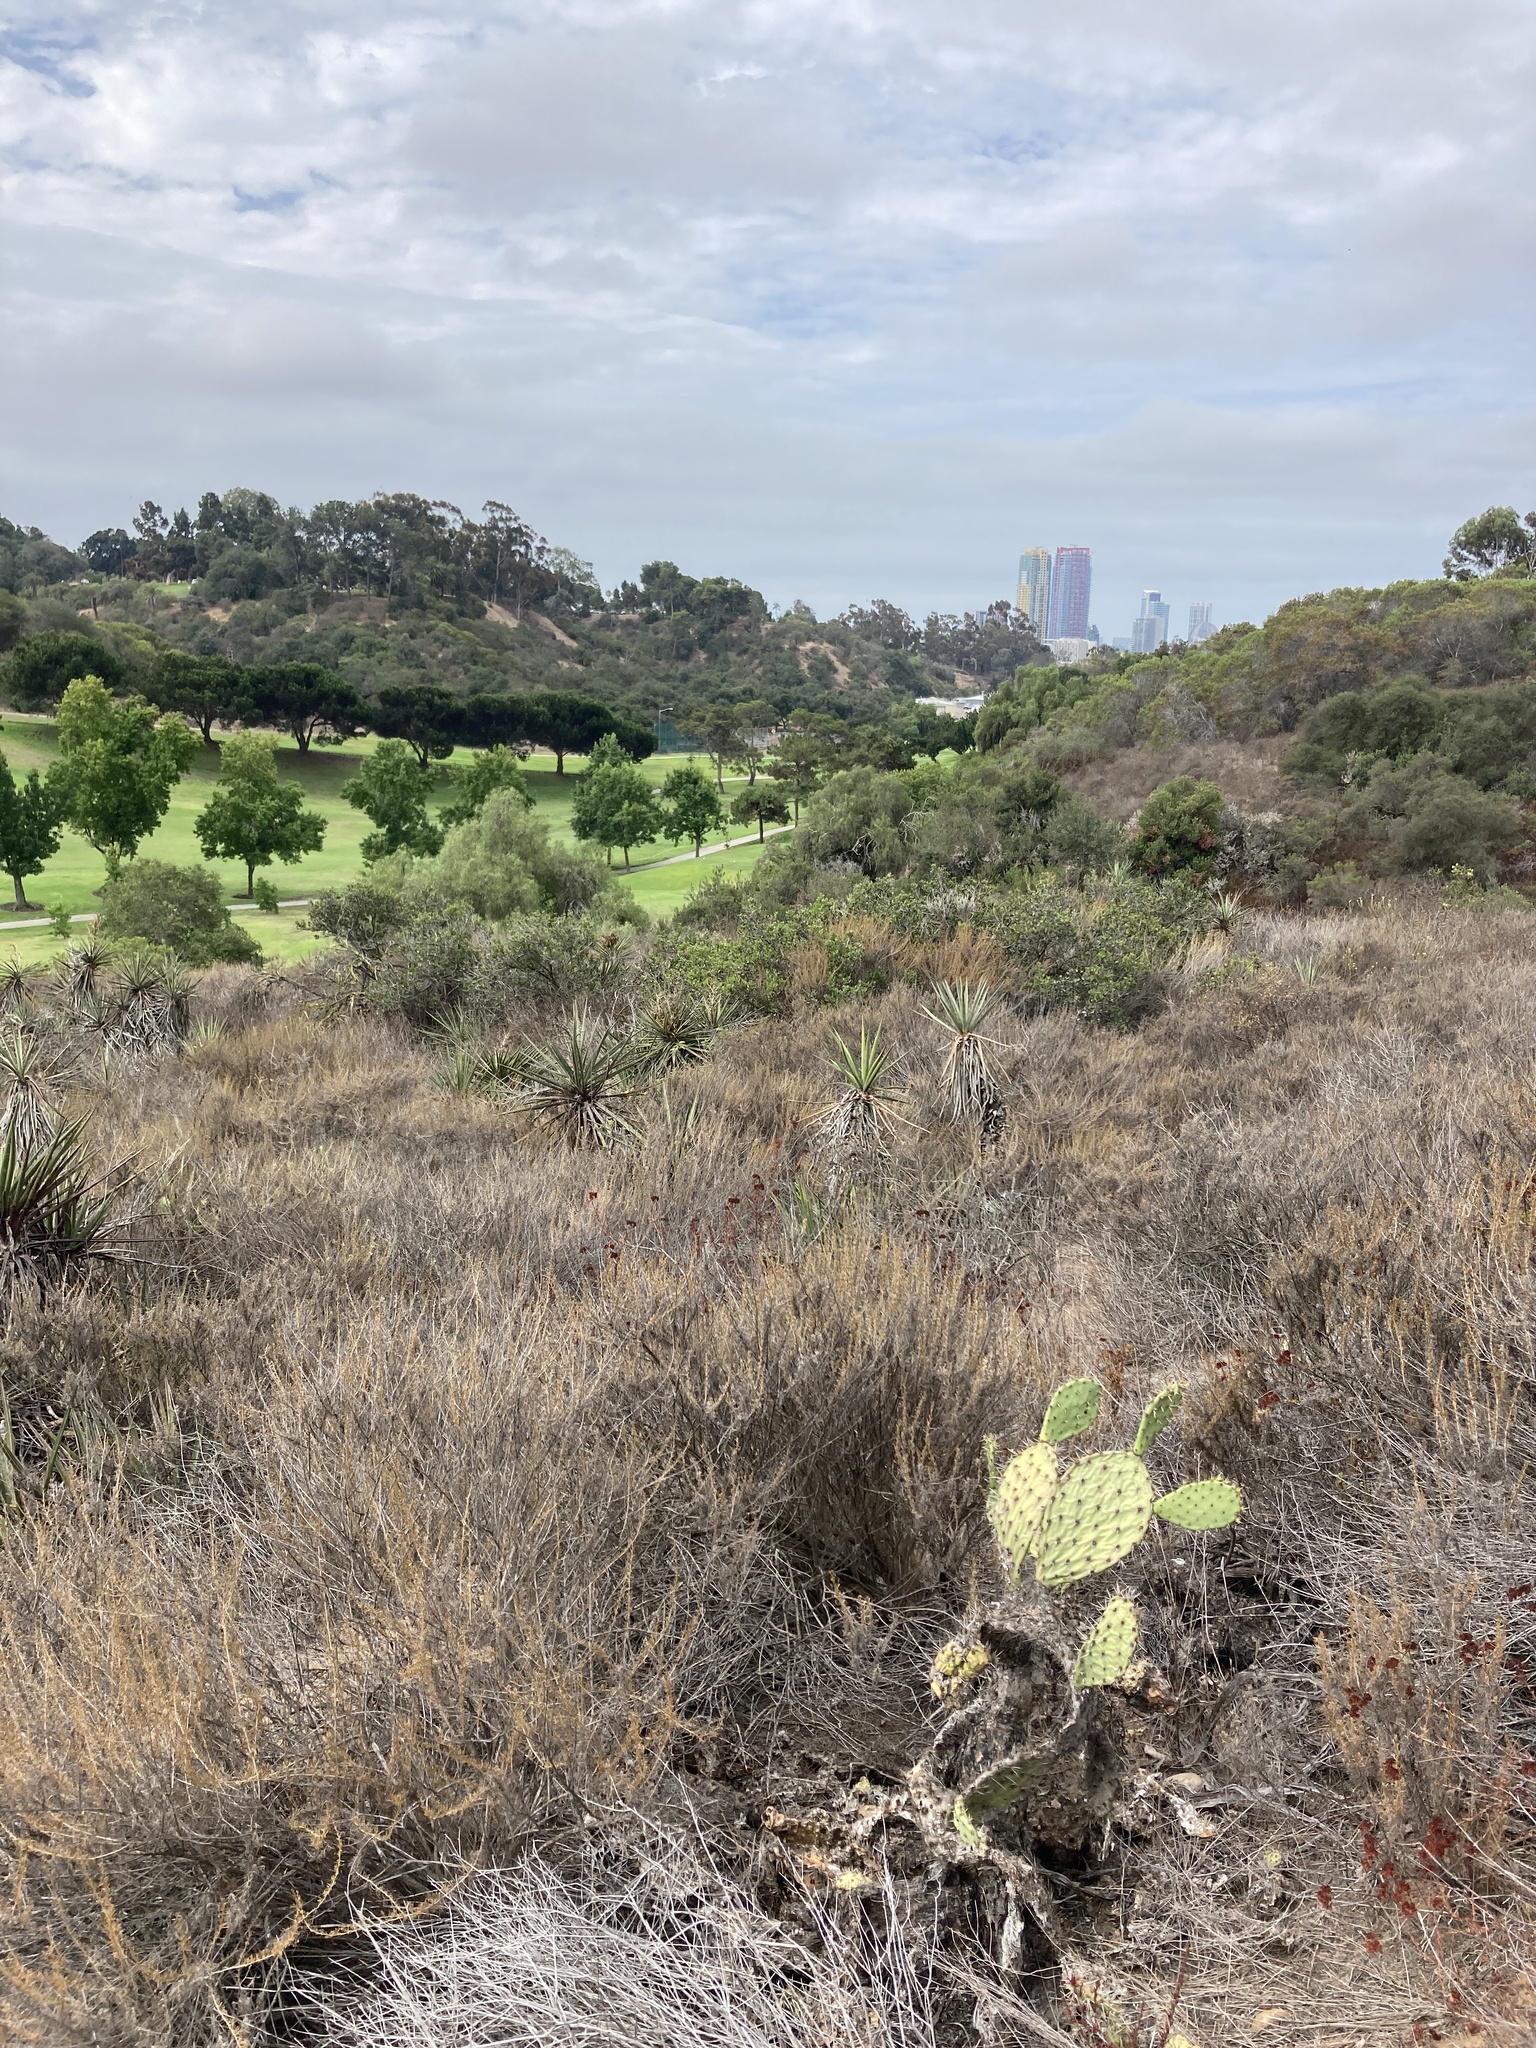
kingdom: Plantae
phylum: Tracheophyta
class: Magnoliopsida
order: Asterales
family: Asteraceae
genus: Artemisia
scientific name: Artemisia californica
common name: California sagebrush
